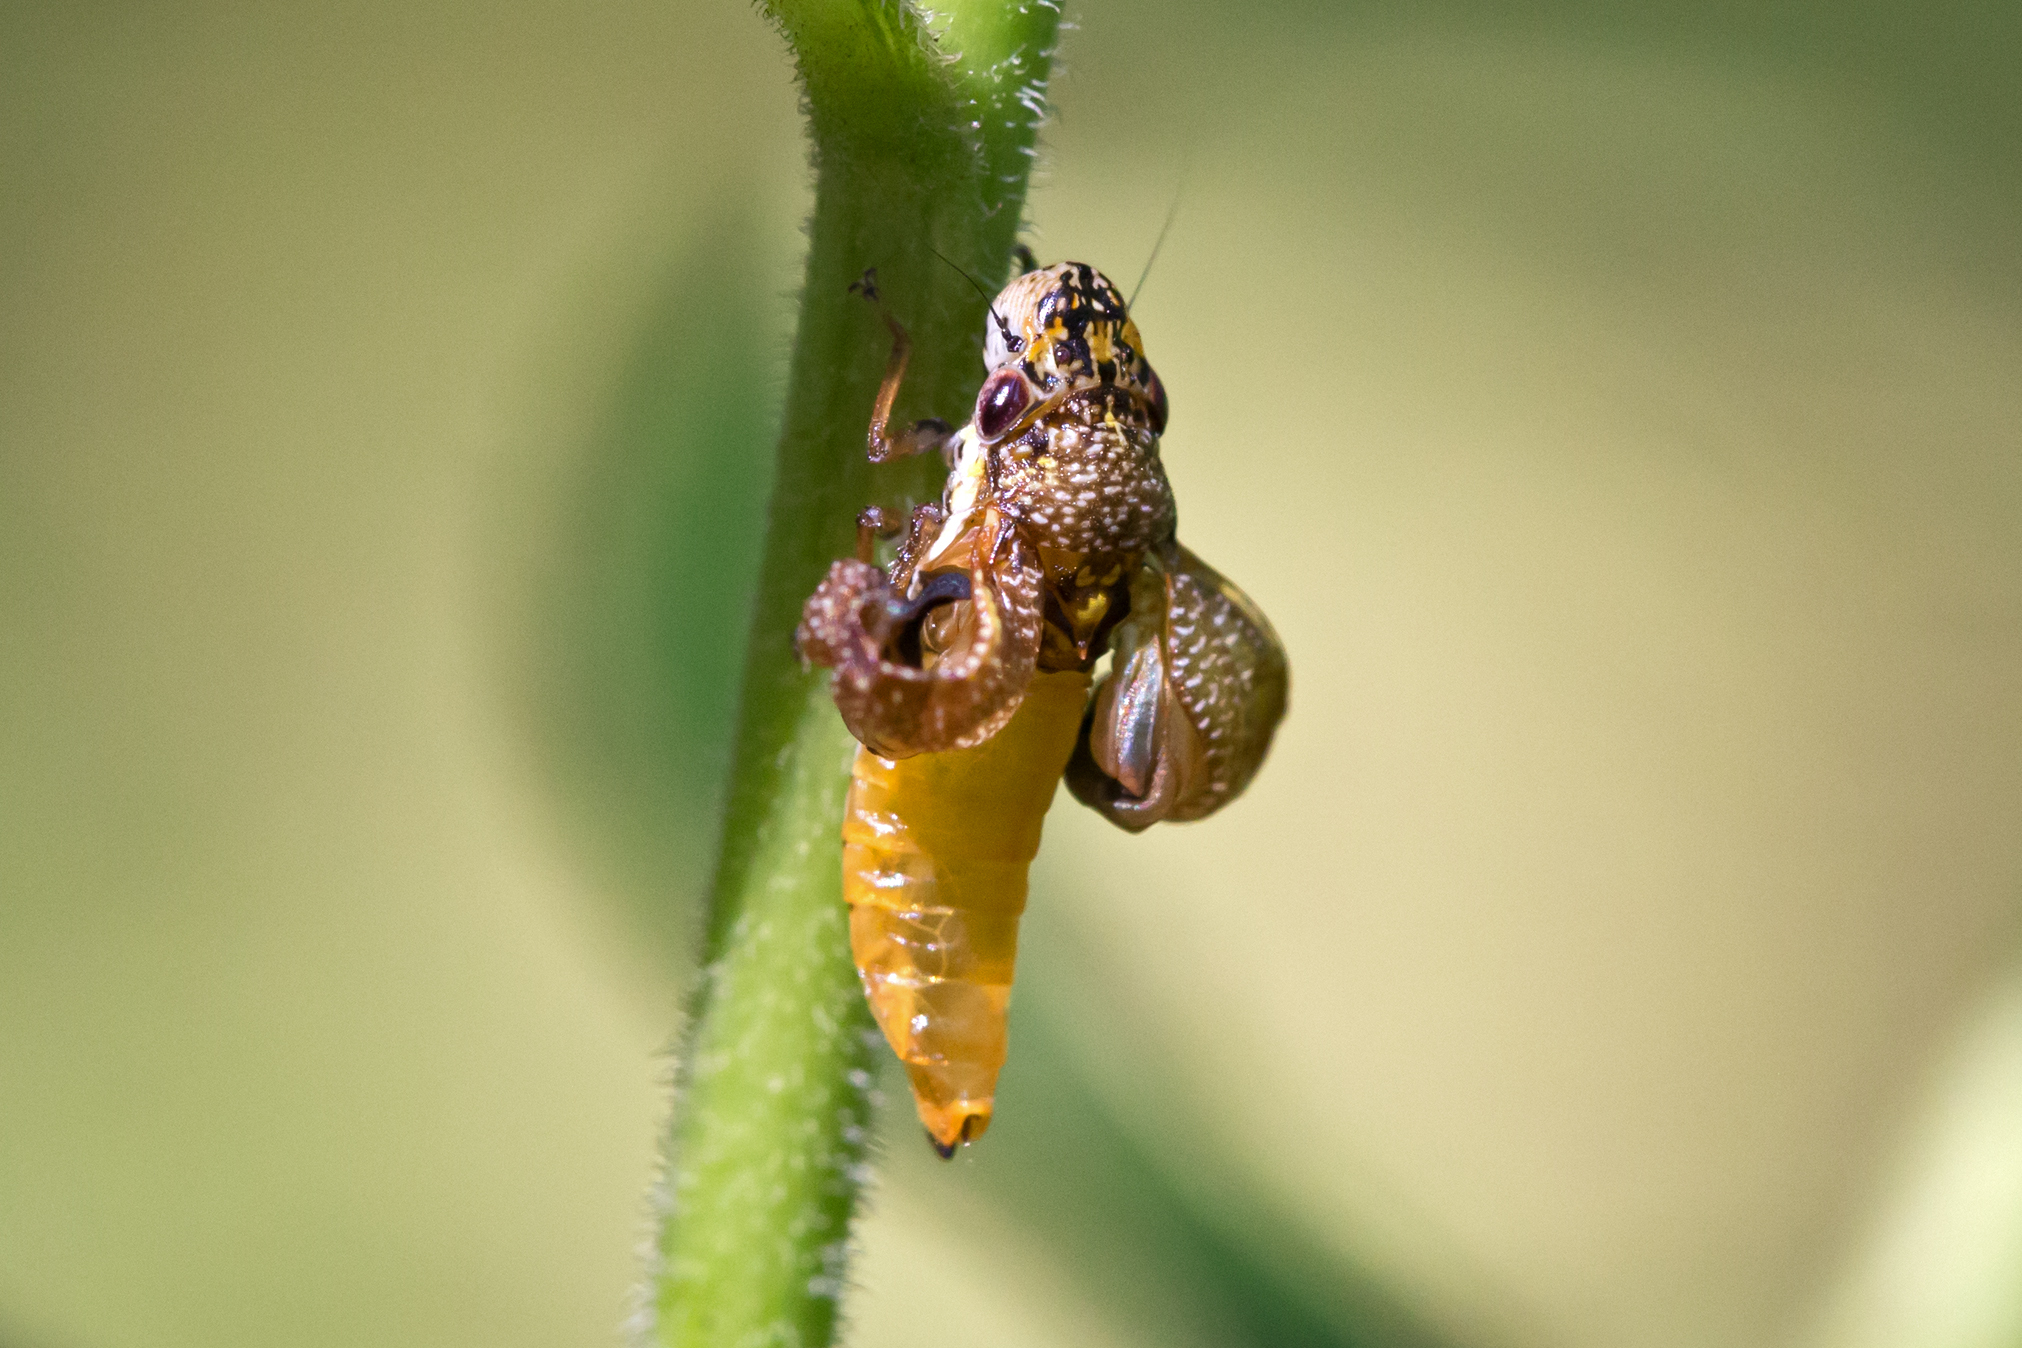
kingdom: Animalia
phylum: Arthropoda
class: Insecta
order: Hemiptera
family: Cicadellidae
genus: Paraulacizes
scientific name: Paraulacizes irrorata
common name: Speckled sharpshooter
